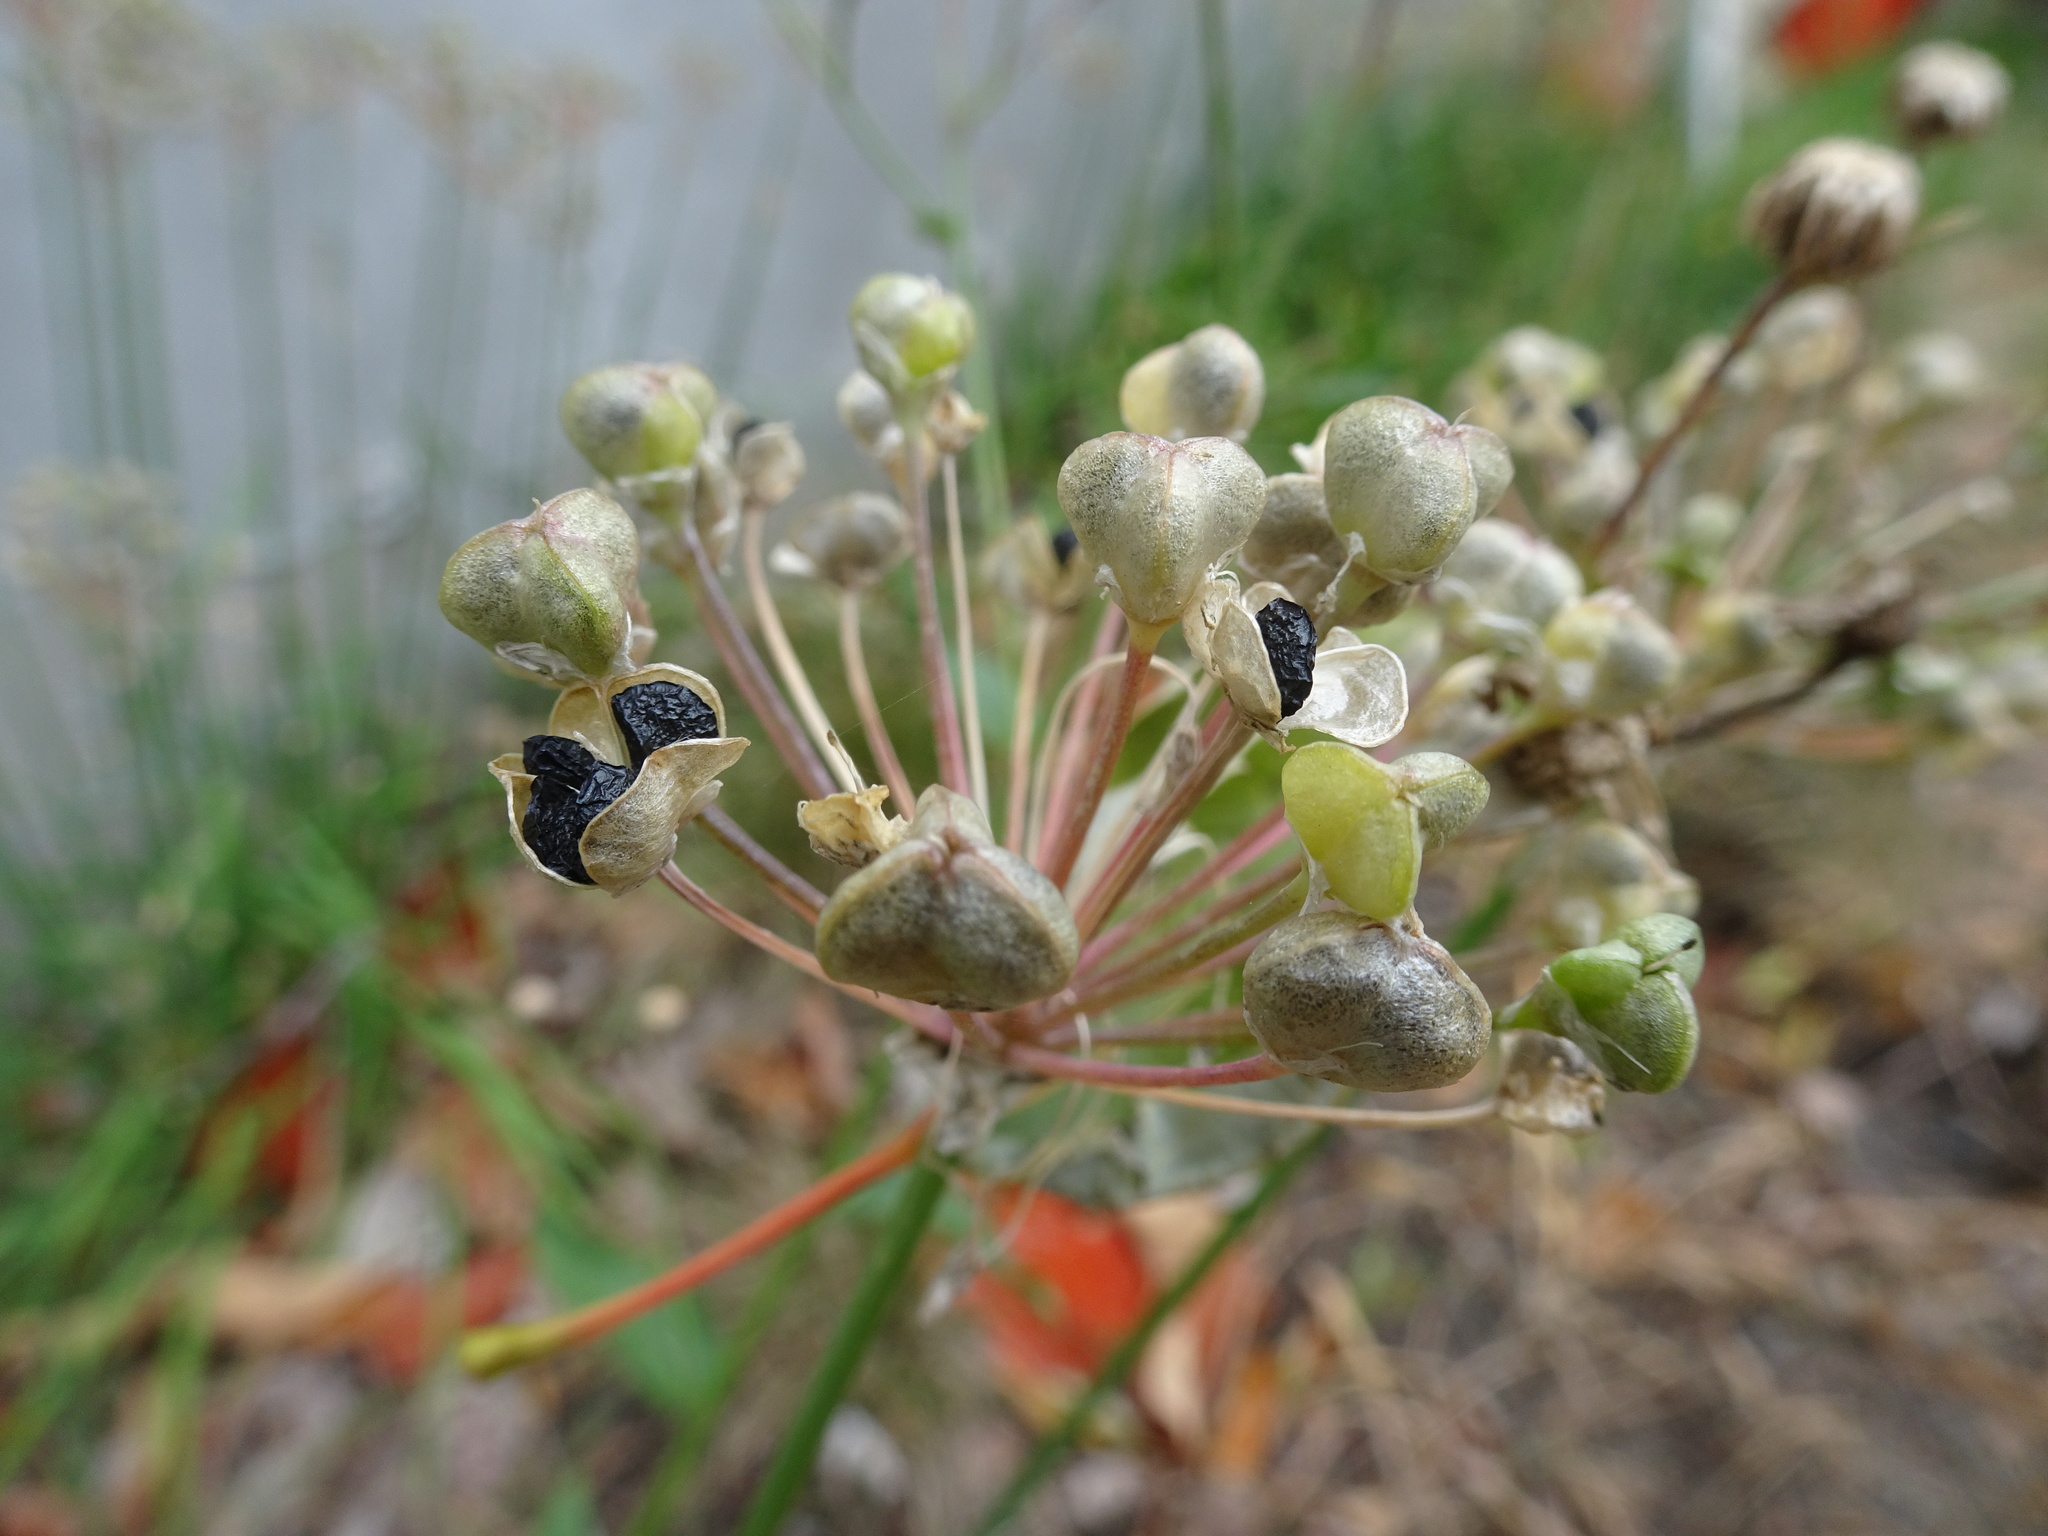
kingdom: Plantae
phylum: Tracheophyta
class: Liliopsida
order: Asparagales
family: Amaryllidaceae
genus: Allium
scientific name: Allium tuberosum
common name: Chinese chives
